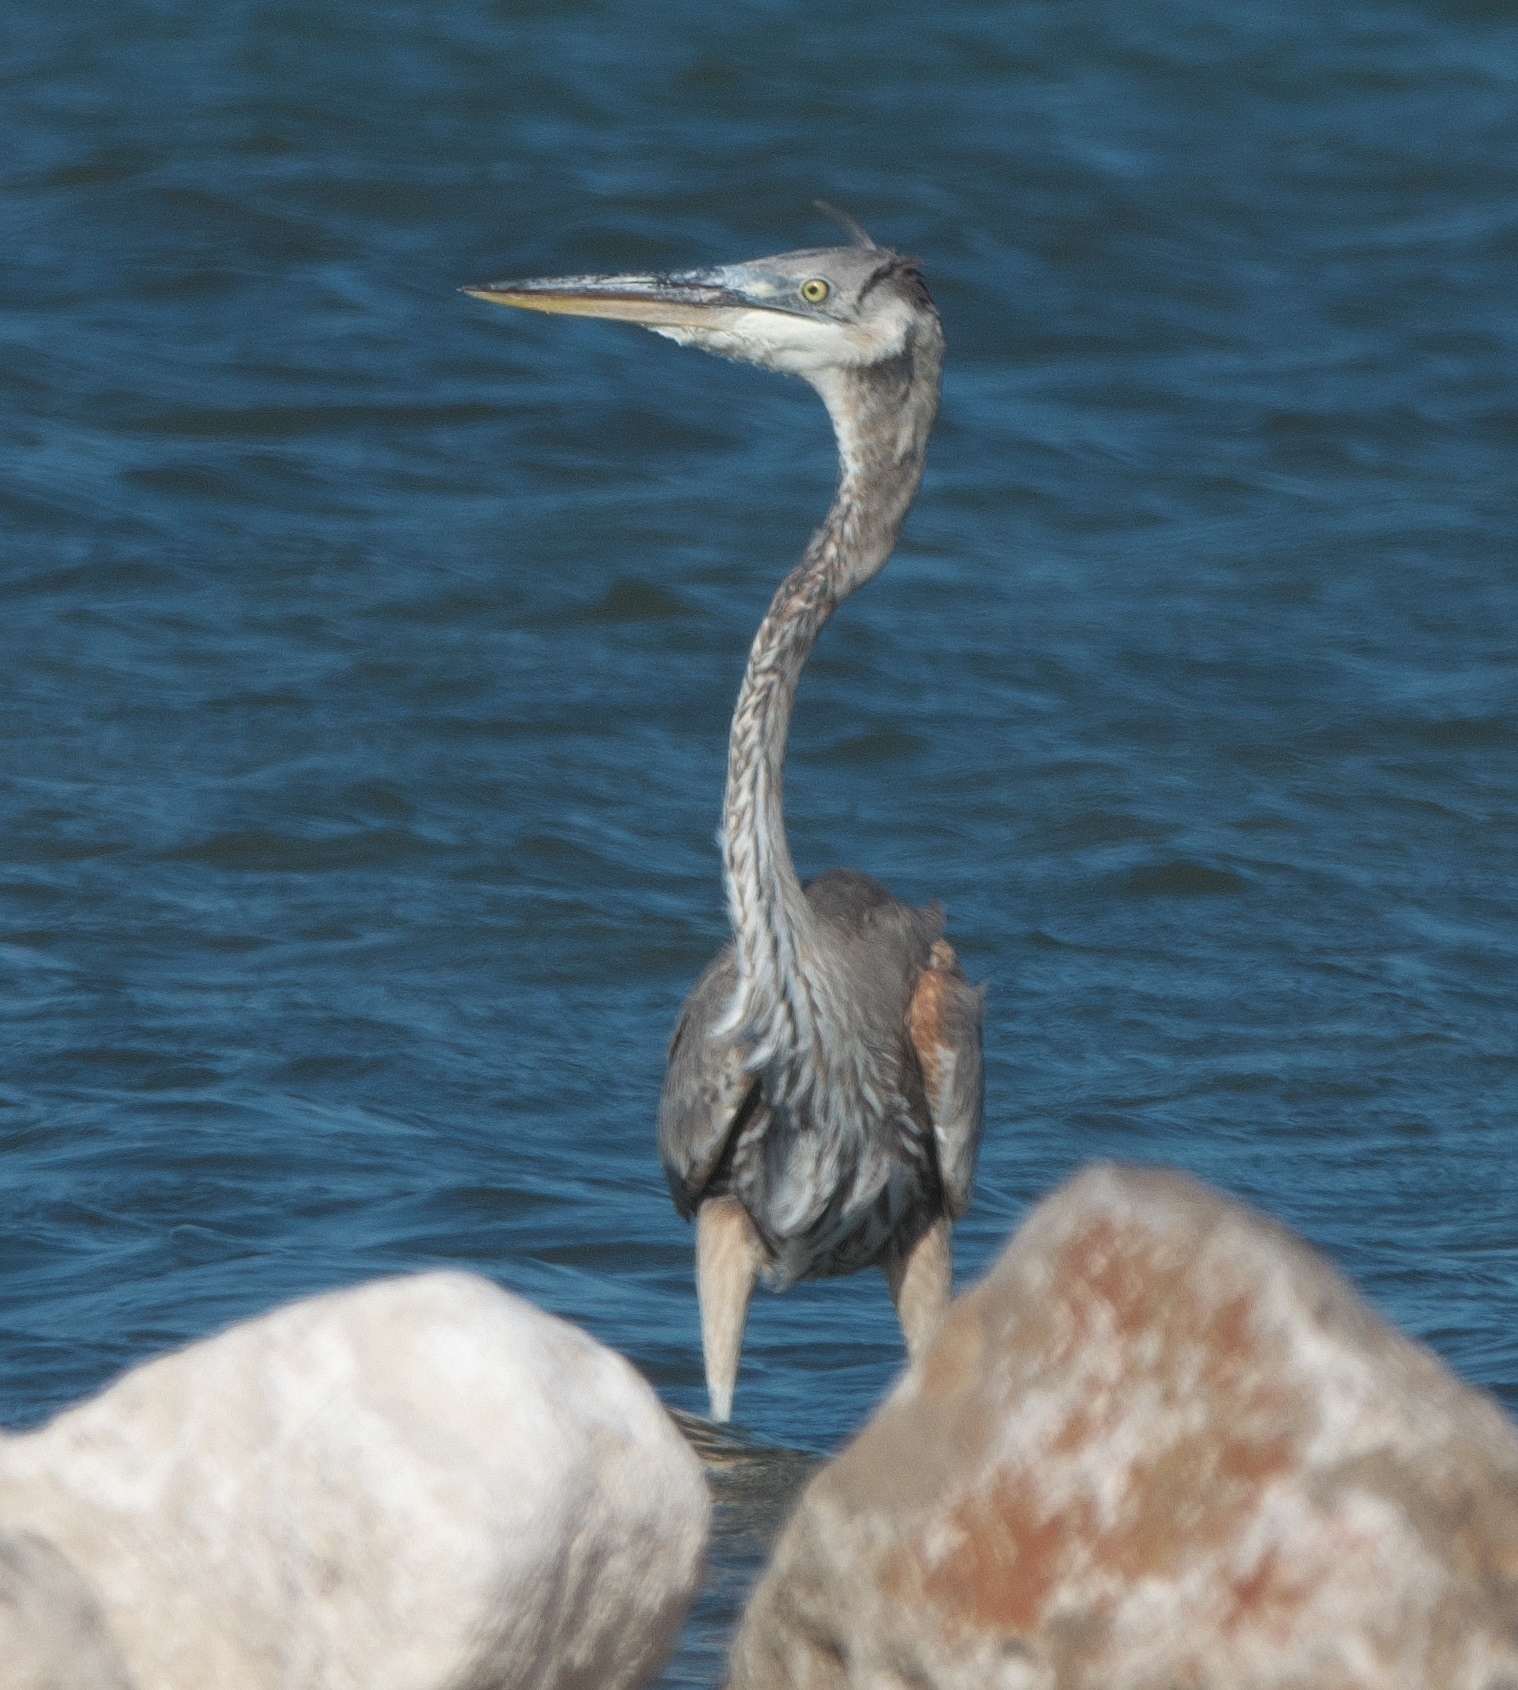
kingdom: Animalia
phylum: Chordata
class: Aves
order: Pelecaniformes
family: Ardeidae
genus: Ardea
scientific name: Ardea herodias
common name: Great blue heron
